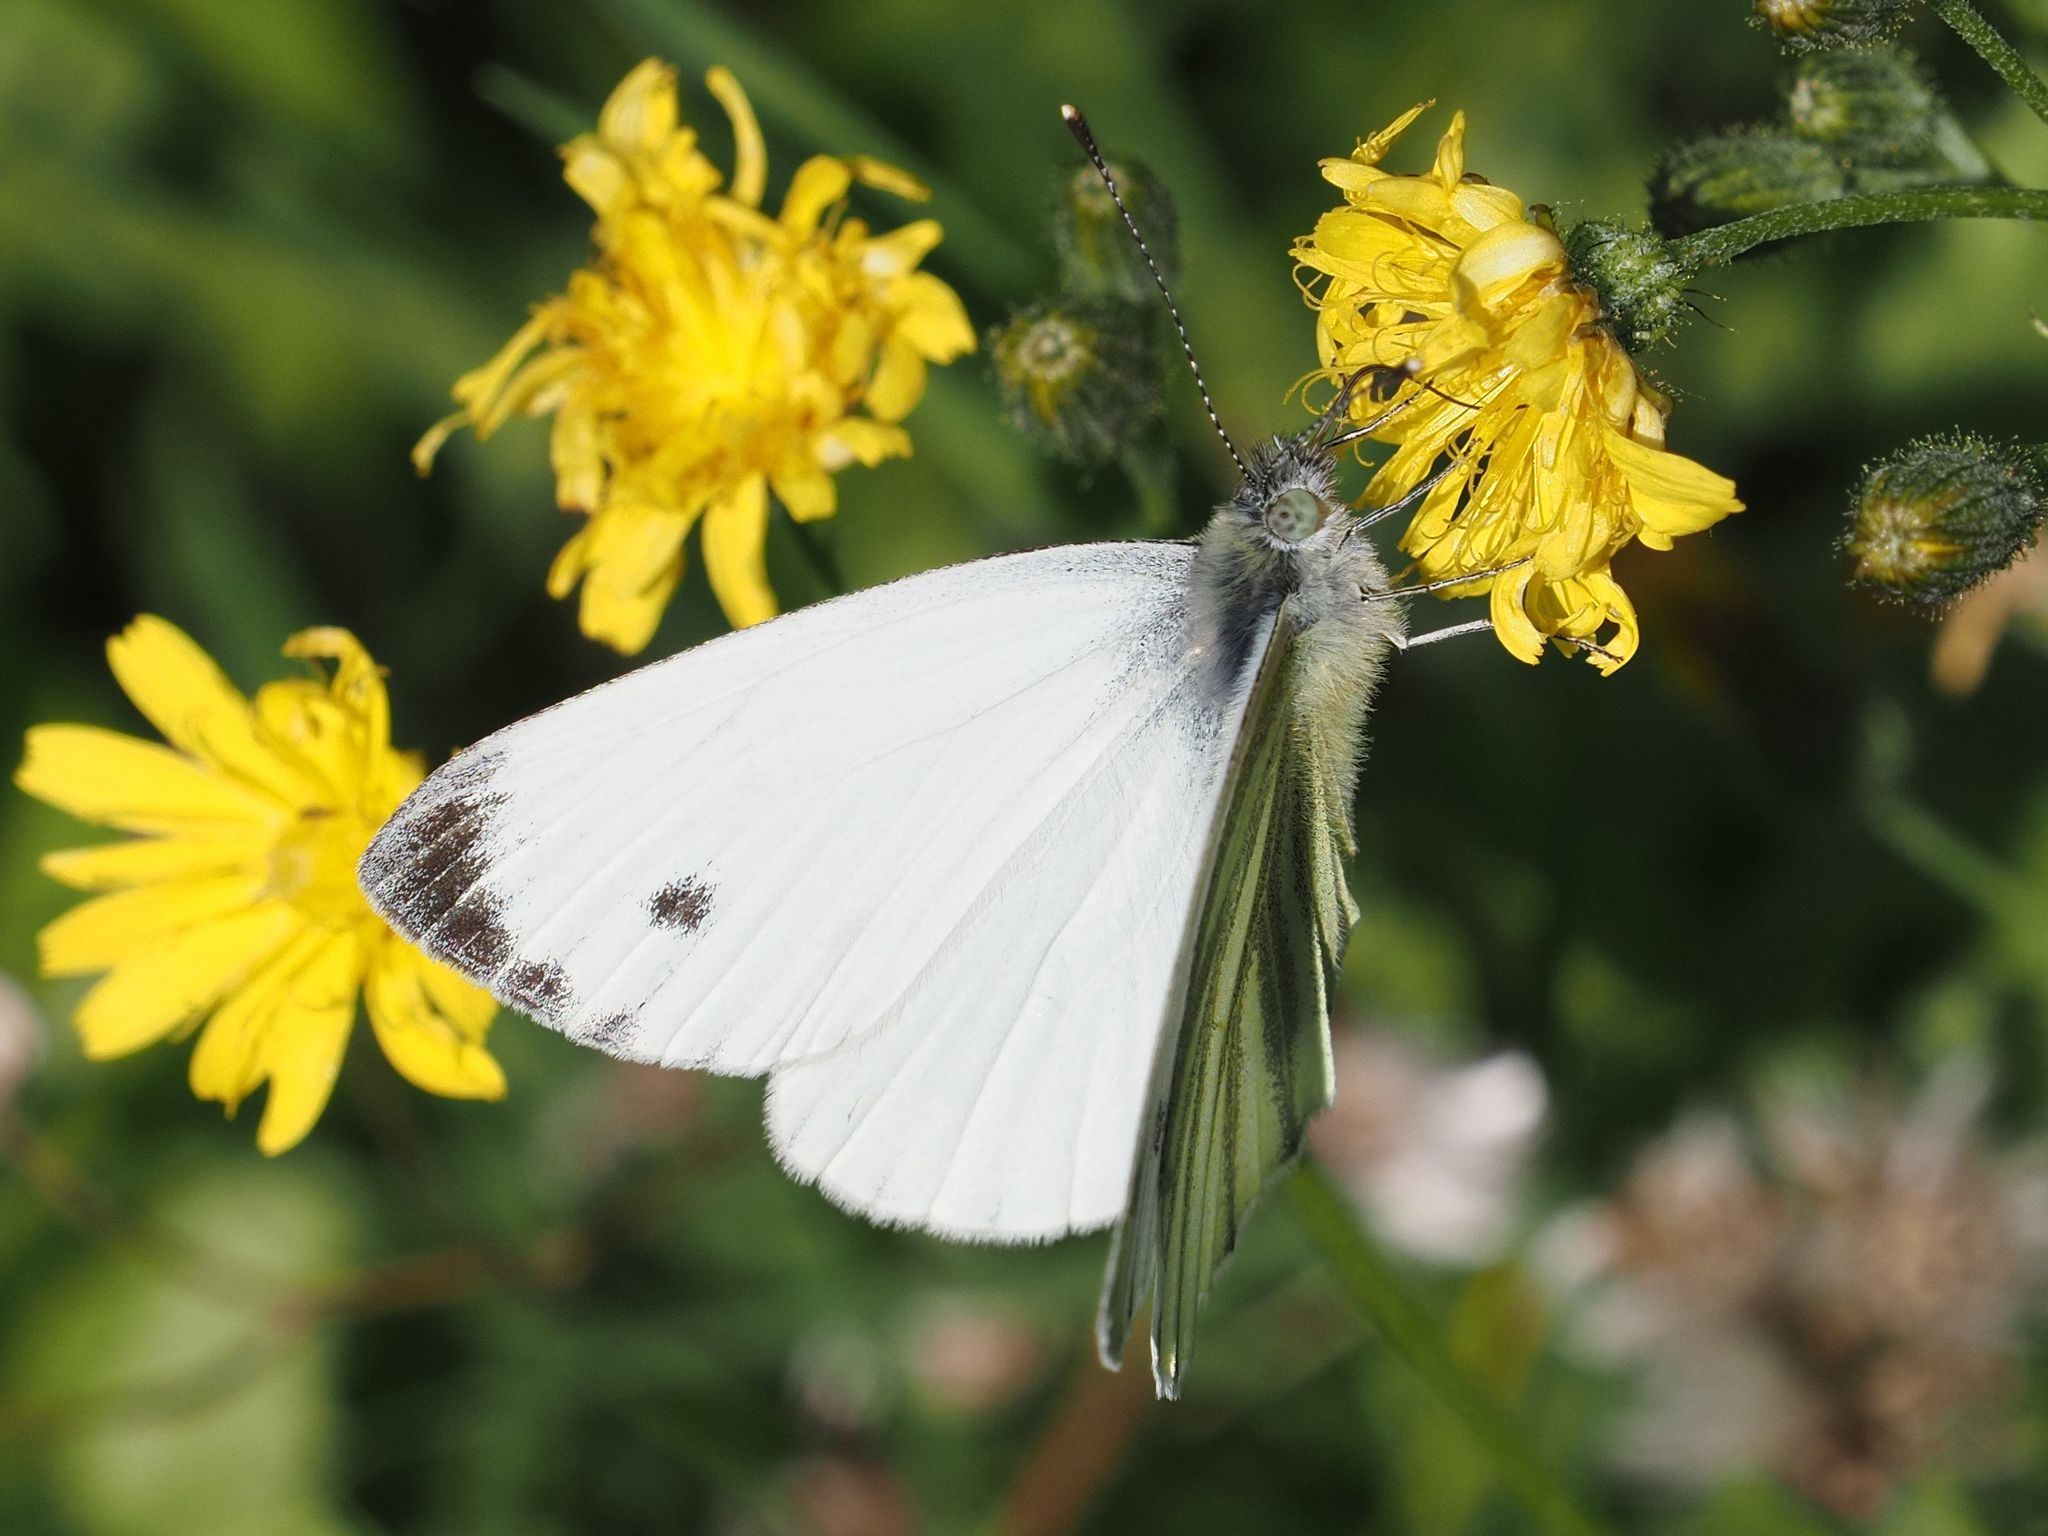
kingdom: Animalia
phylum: Arthropoda
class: Insecta
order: Lepidoptera
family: Pieridae
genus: Pieris
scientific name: Pieris napi
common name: Green-veined white
